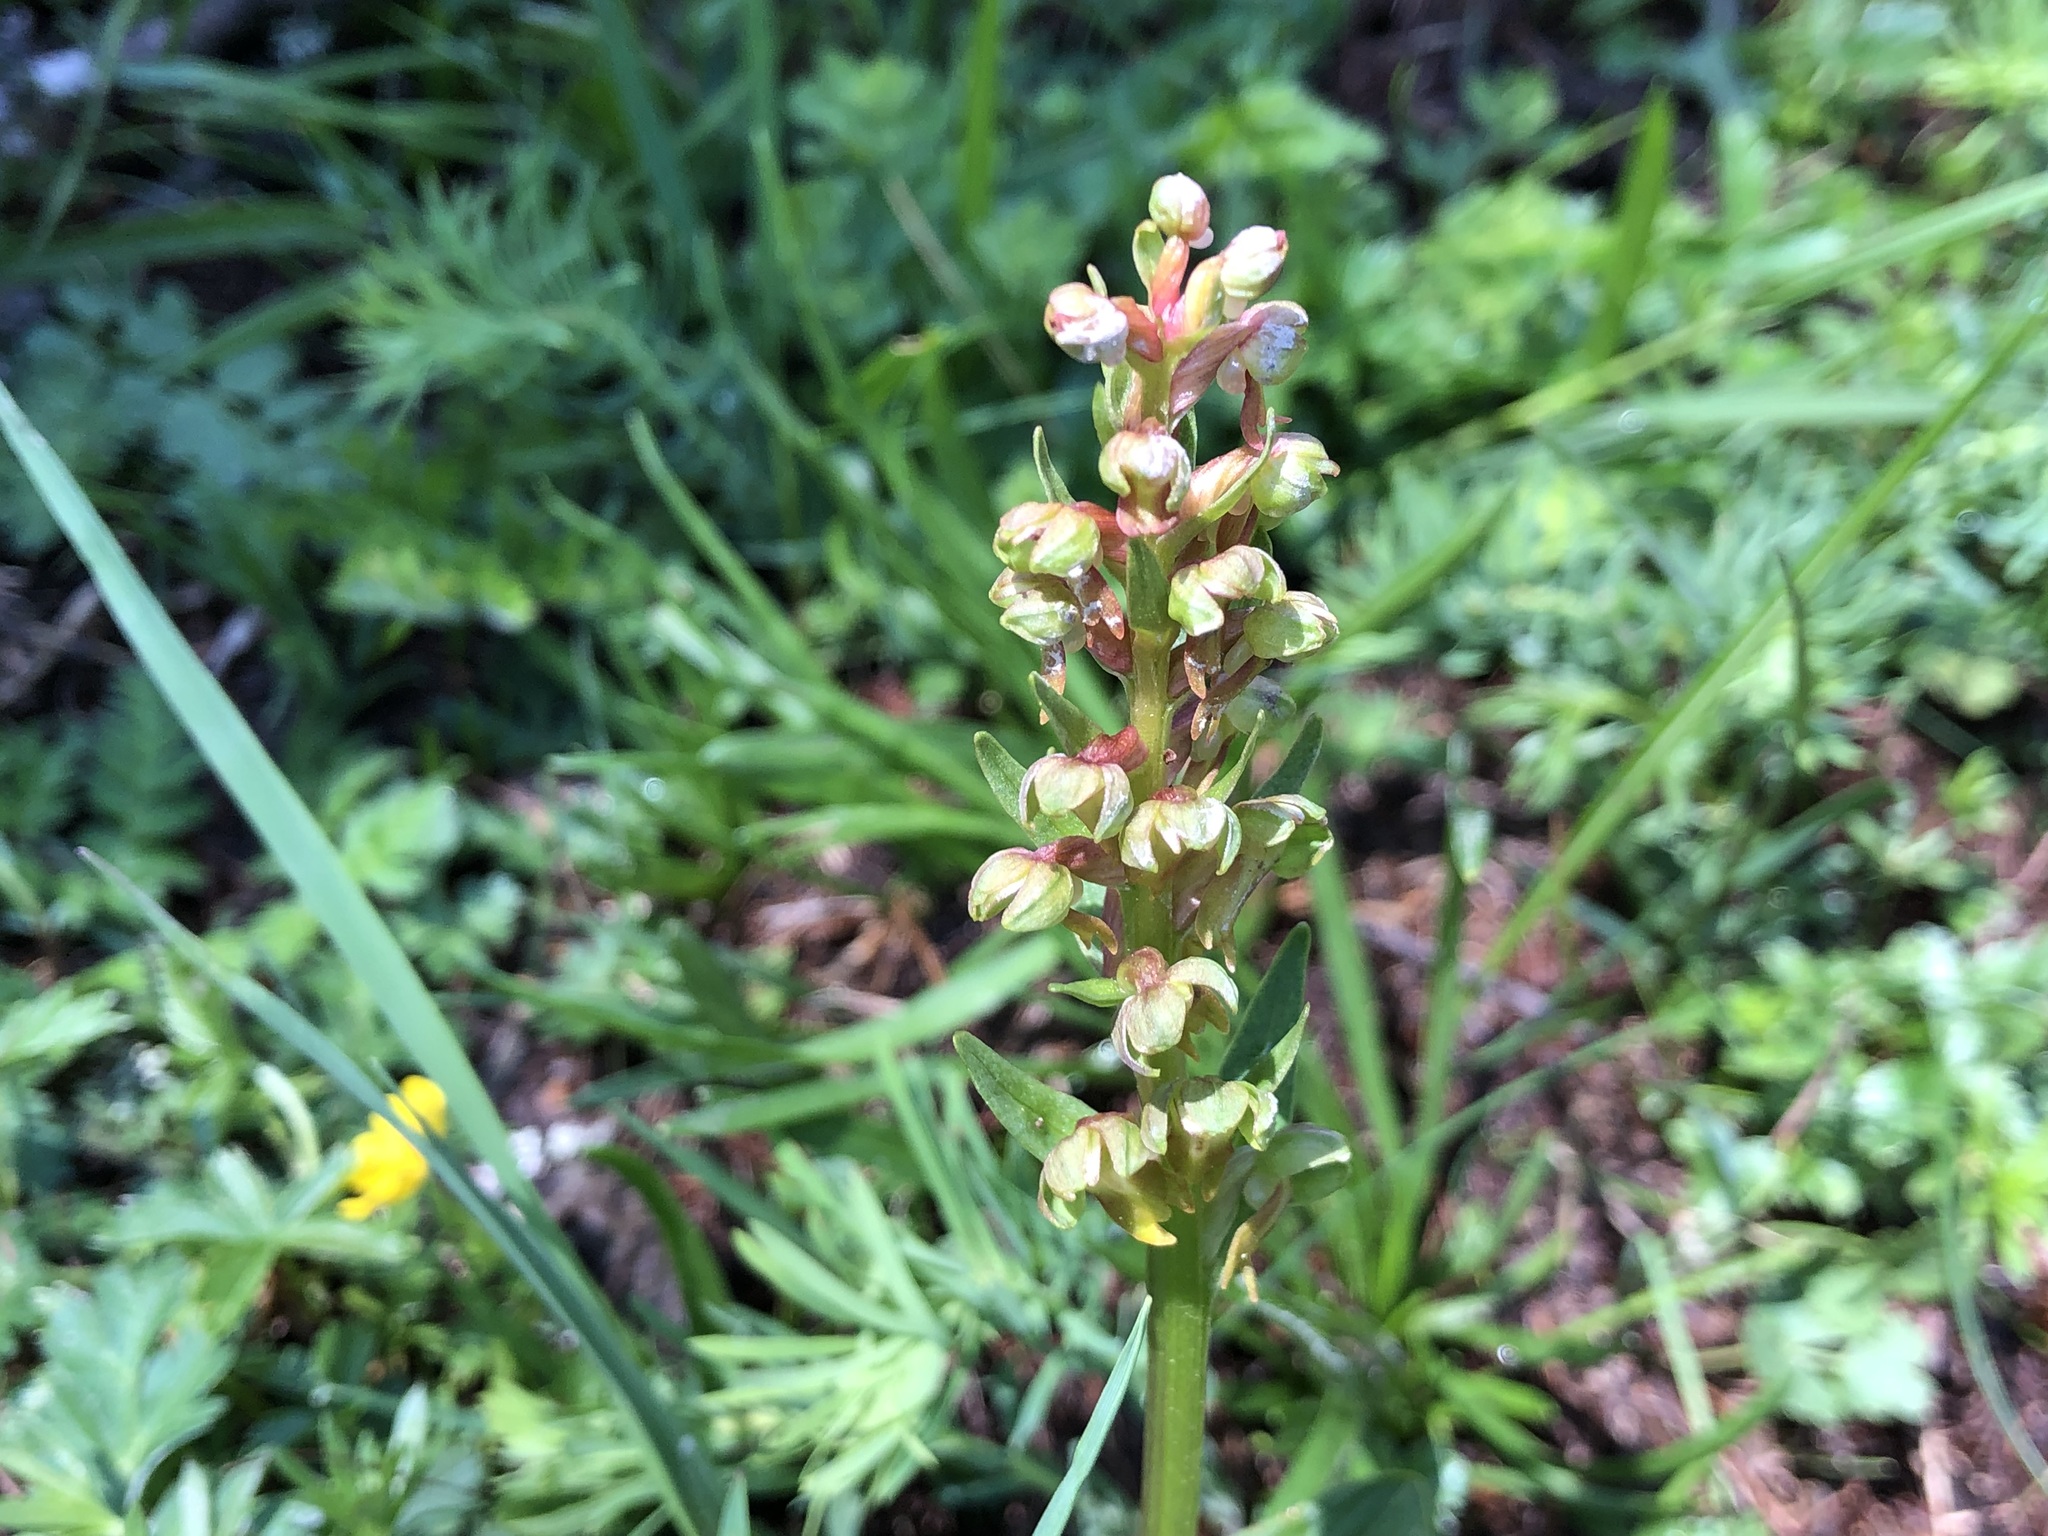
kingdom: Plantae
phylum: Tracheophyta
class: Liliopsida
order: Asparagales
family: Orchidaceae
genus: Dactylorhiza
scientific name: Dactylorhiza viridis
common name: Longbract frog orchid
